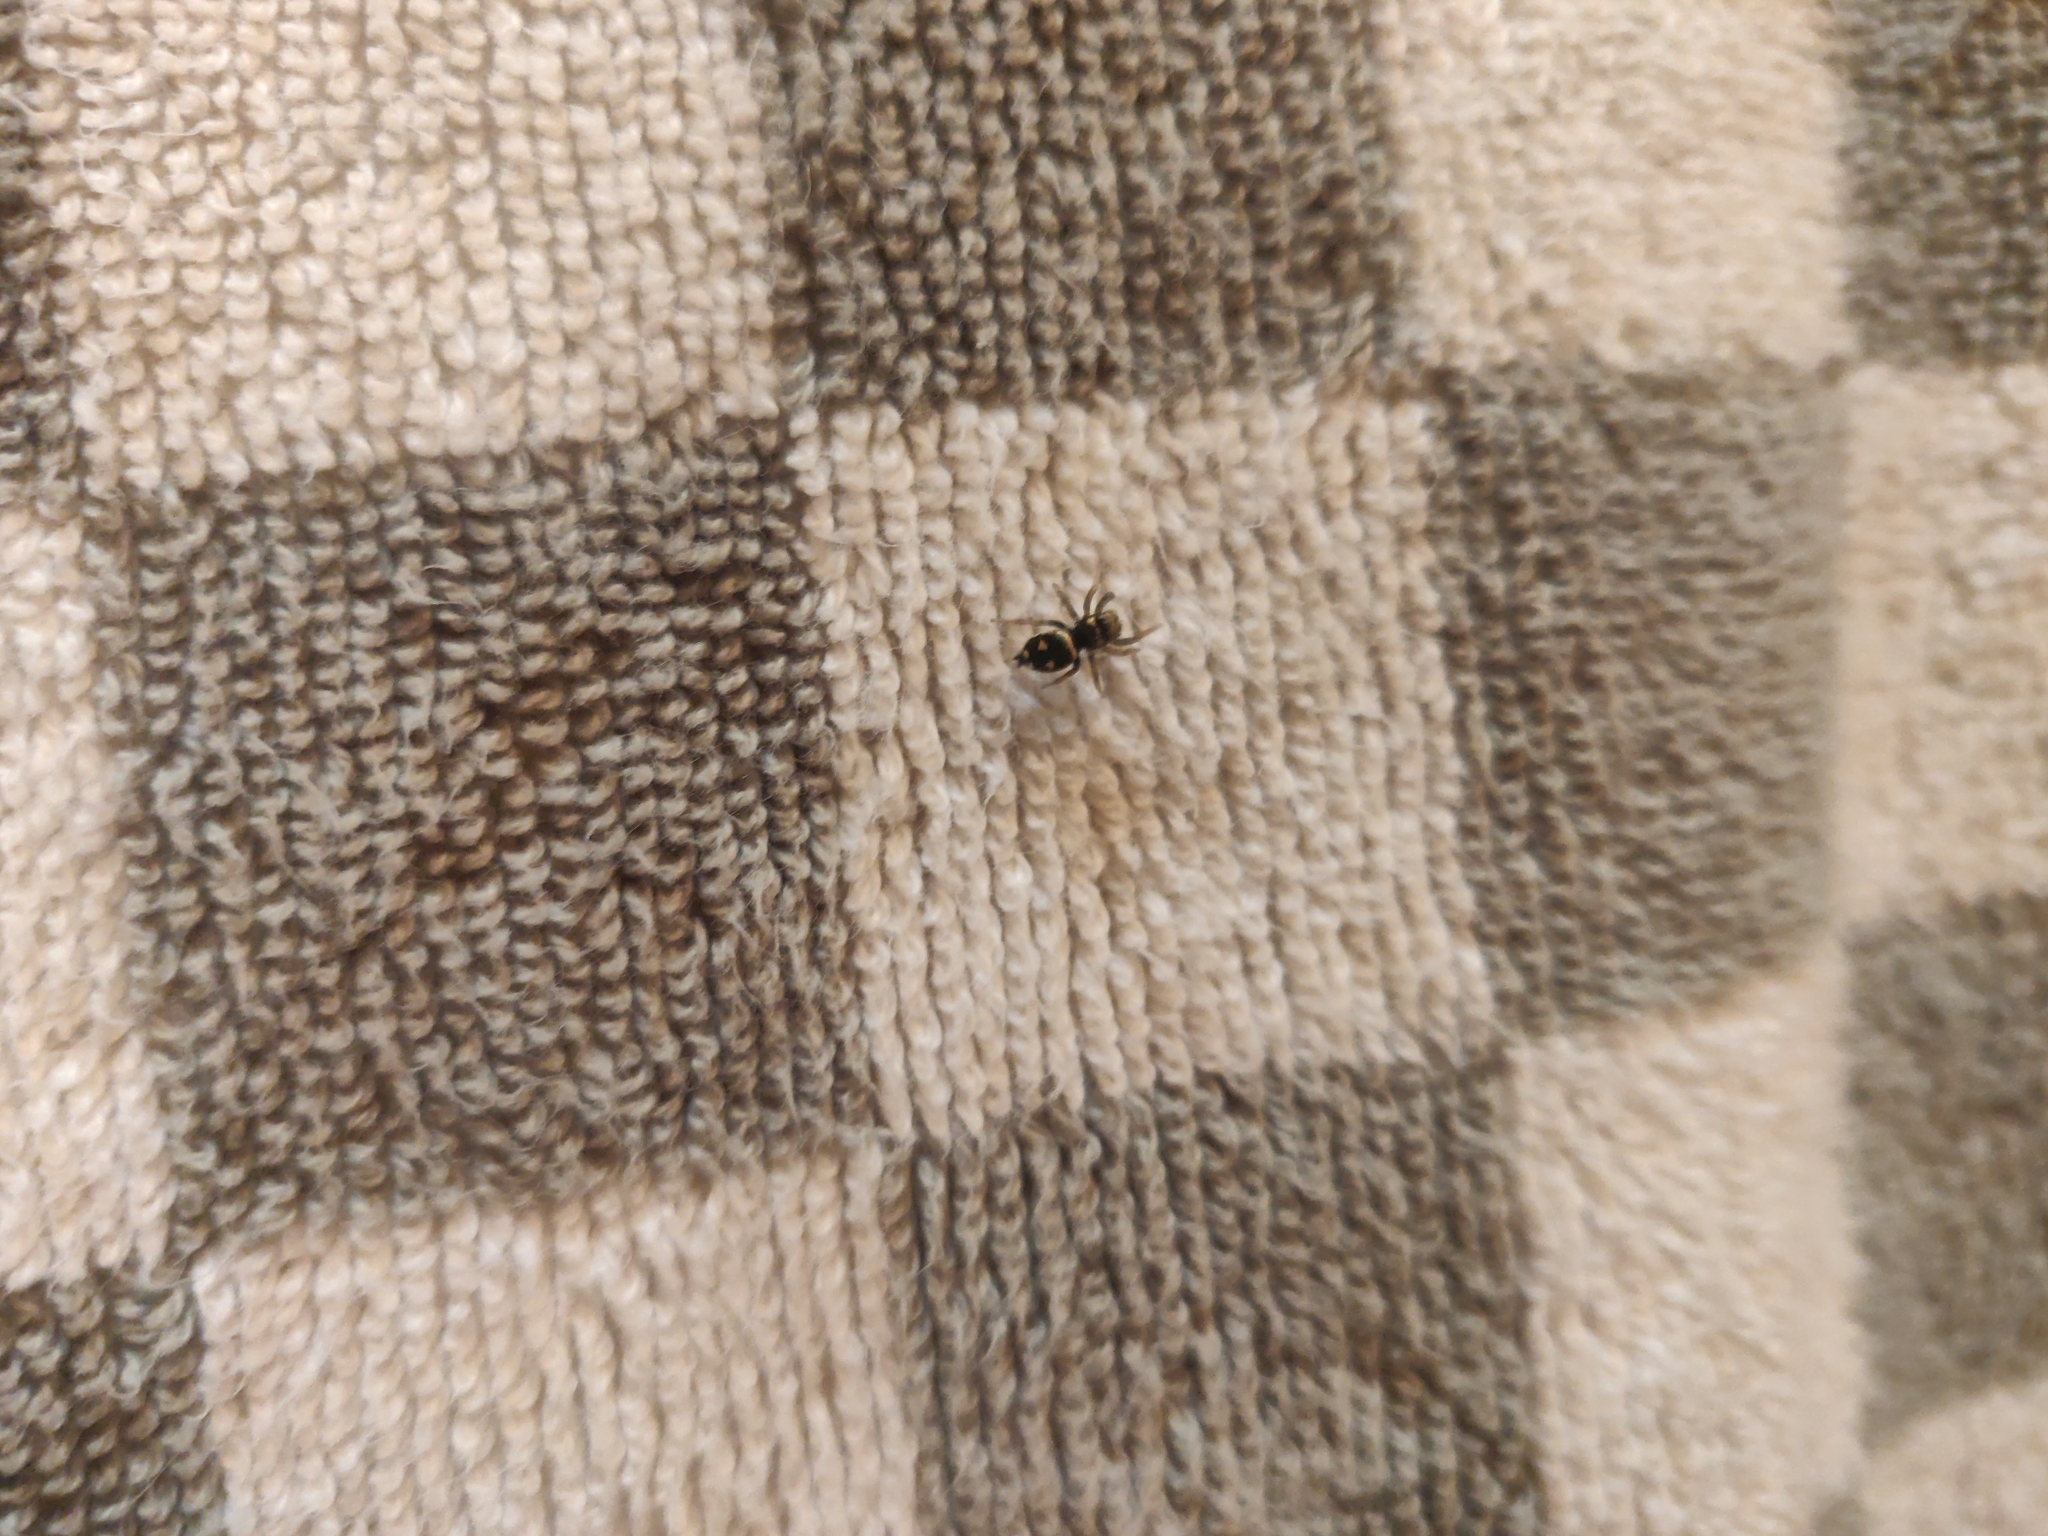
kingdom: Animalia
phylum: Arthropoda
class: Arachnida
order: Araneae
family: Salticidae
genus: Heliophanus
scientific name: Heliophanus apiatus
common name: Sun jumping spider
